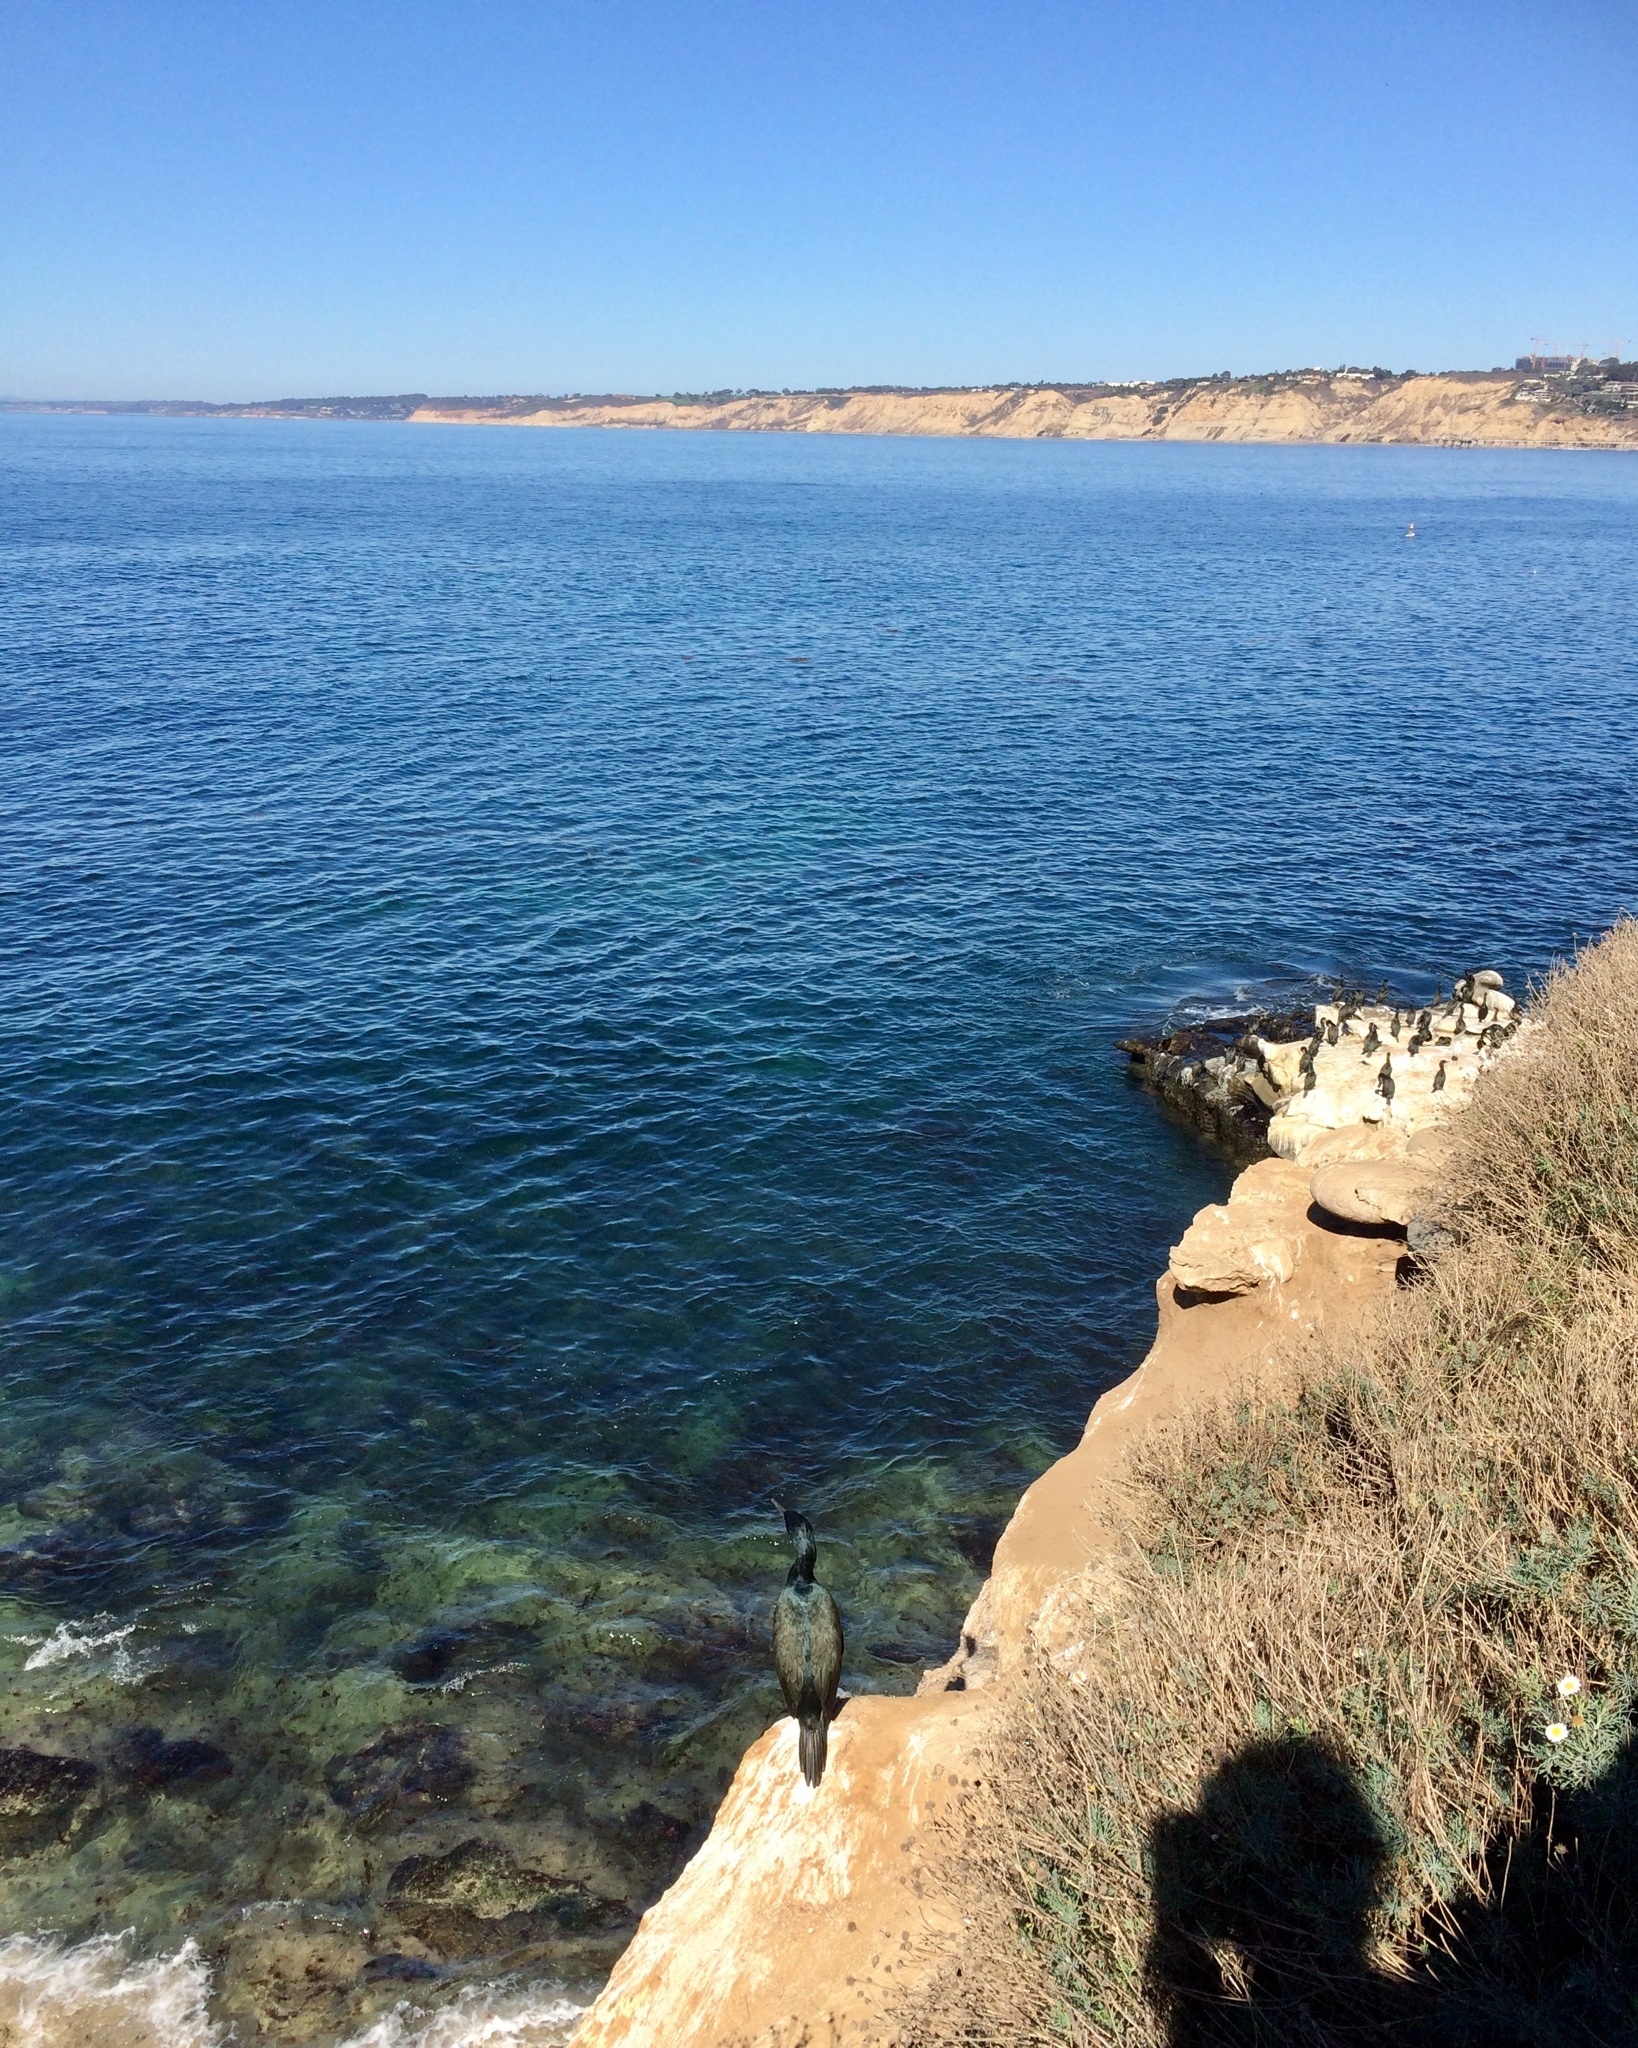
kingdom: Animalia
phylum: Chordata
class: Aves
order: Suliformes
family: Phalacrocoracidae
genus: Phalacrocorax
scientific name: Phalacrocorax pelagicus
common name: Pelagic cormorant
